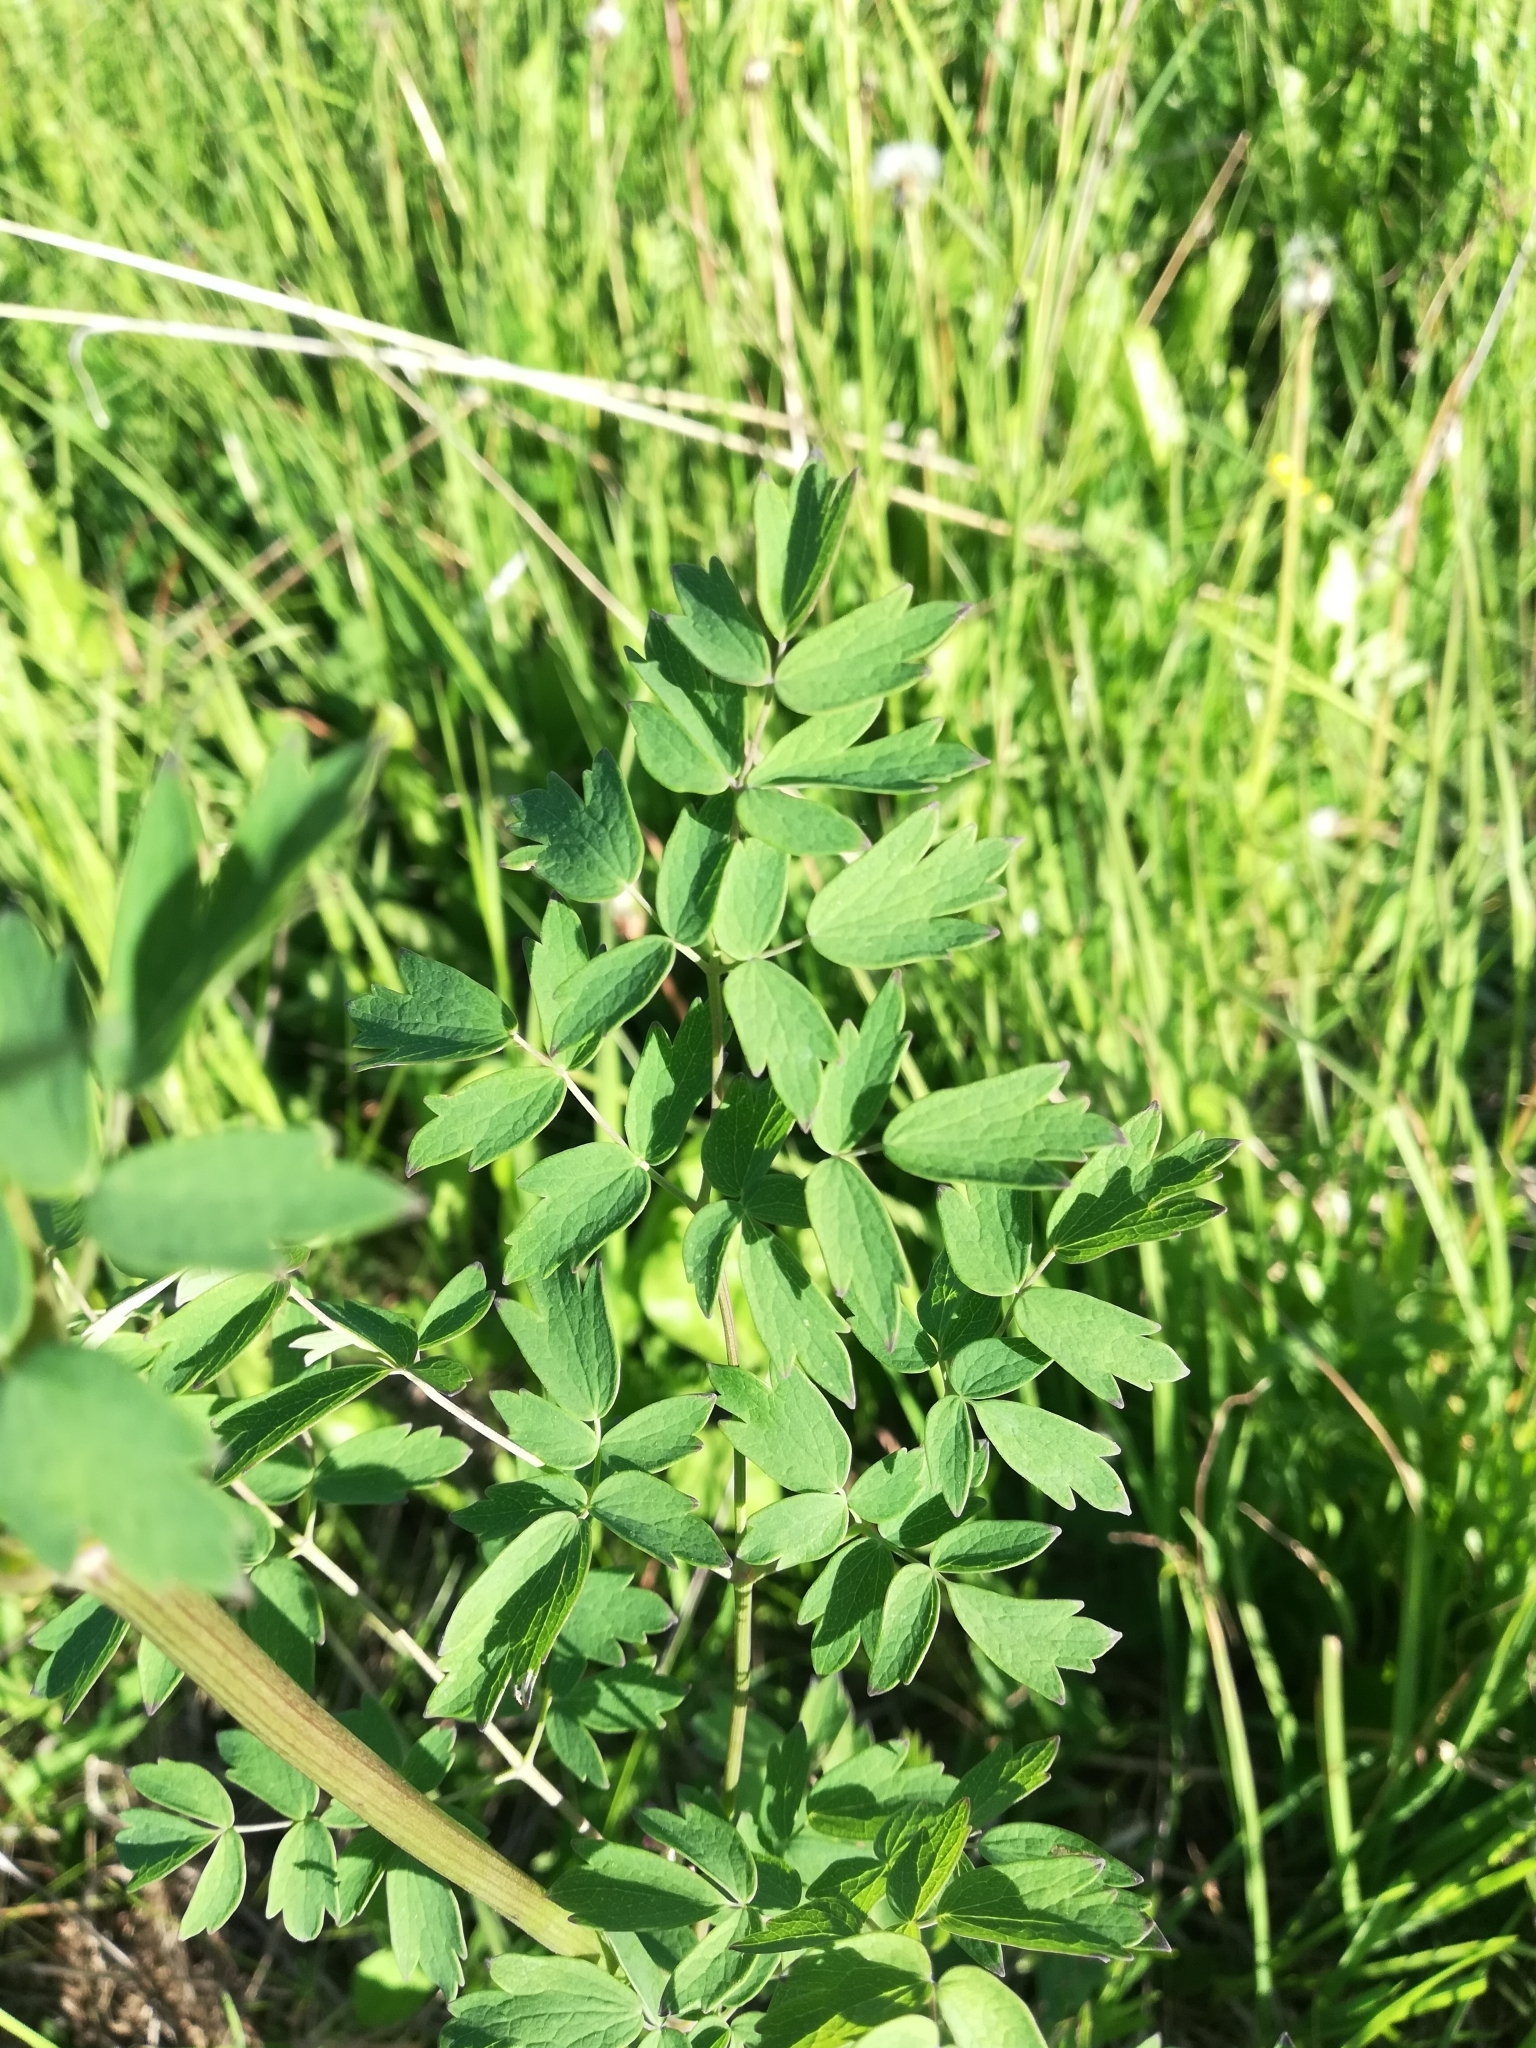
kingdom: Plantae
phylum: Tracheophyta
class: Magnoliopsida
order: Ranunculales
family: Ranunculaceae
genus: Thalictrum
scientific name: Thalictrum simplex
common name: Small meadow-rue
